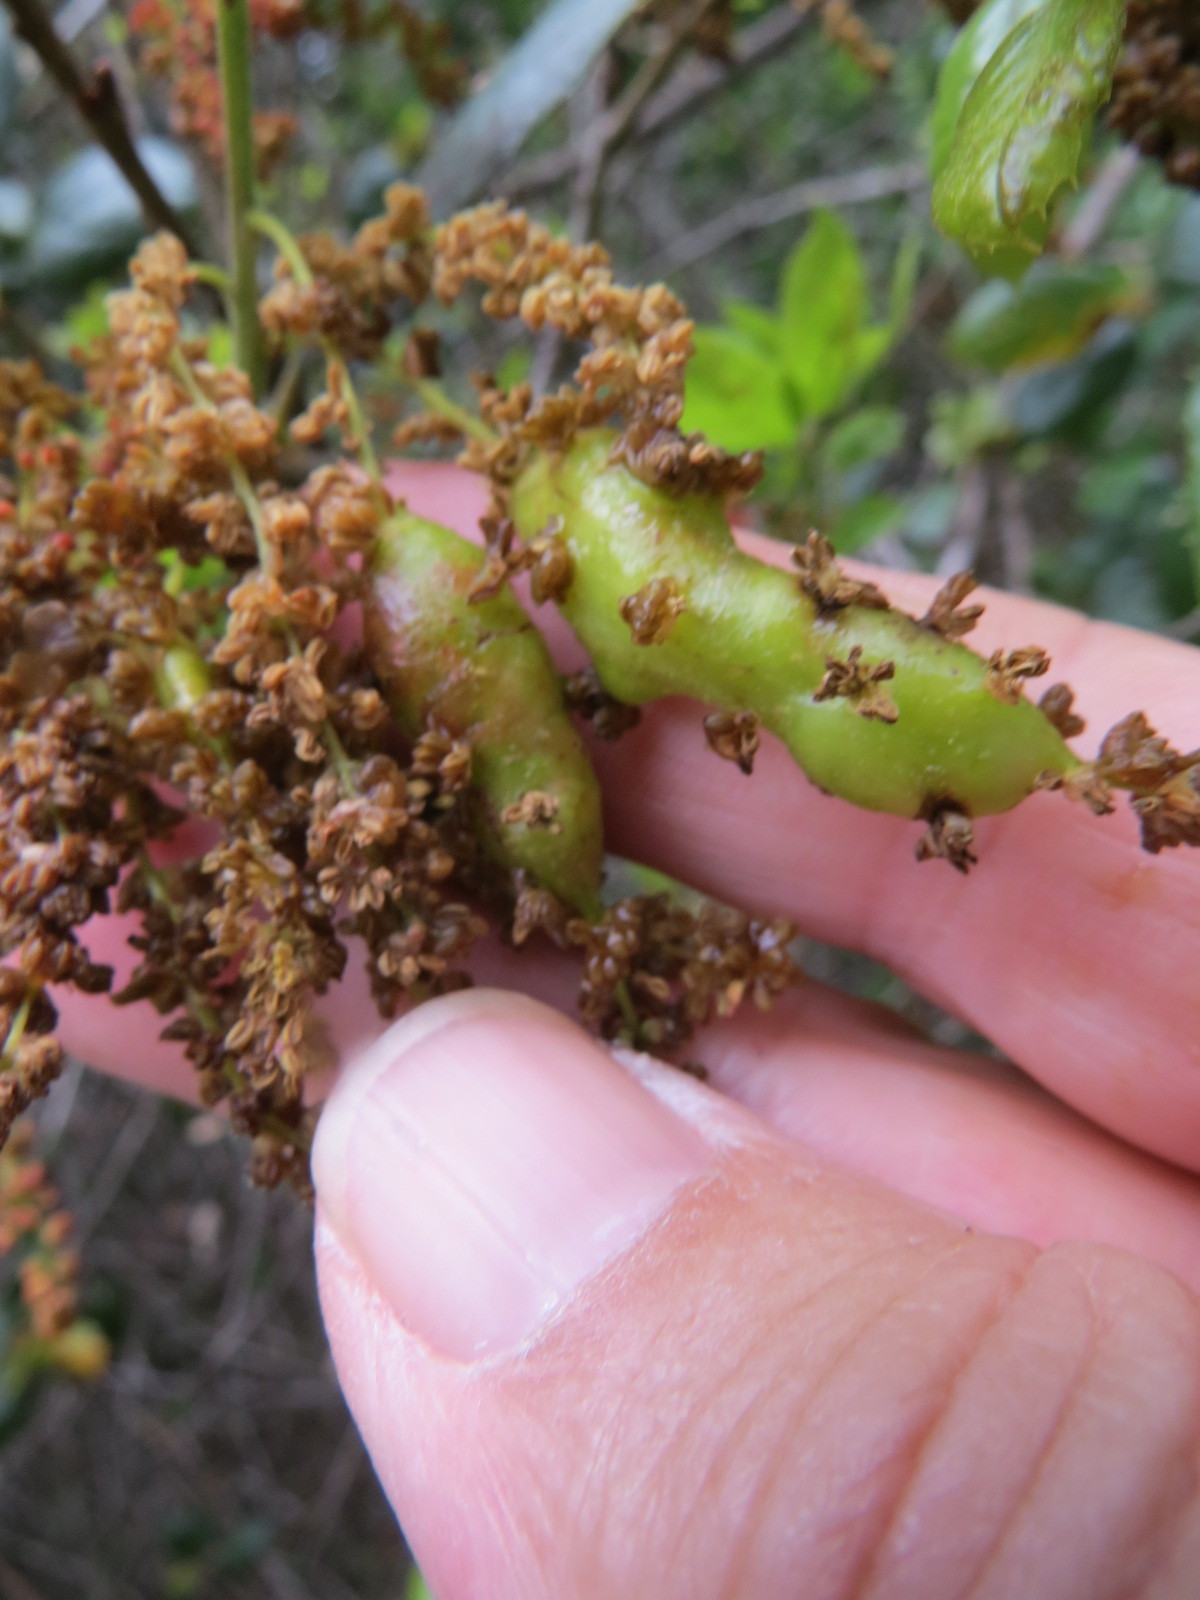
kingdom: Animalia
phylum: Arthropoda
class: Insecta
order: Hymenoptera
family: Cynipidae
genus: Callirhytis
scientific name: Callirhytis
